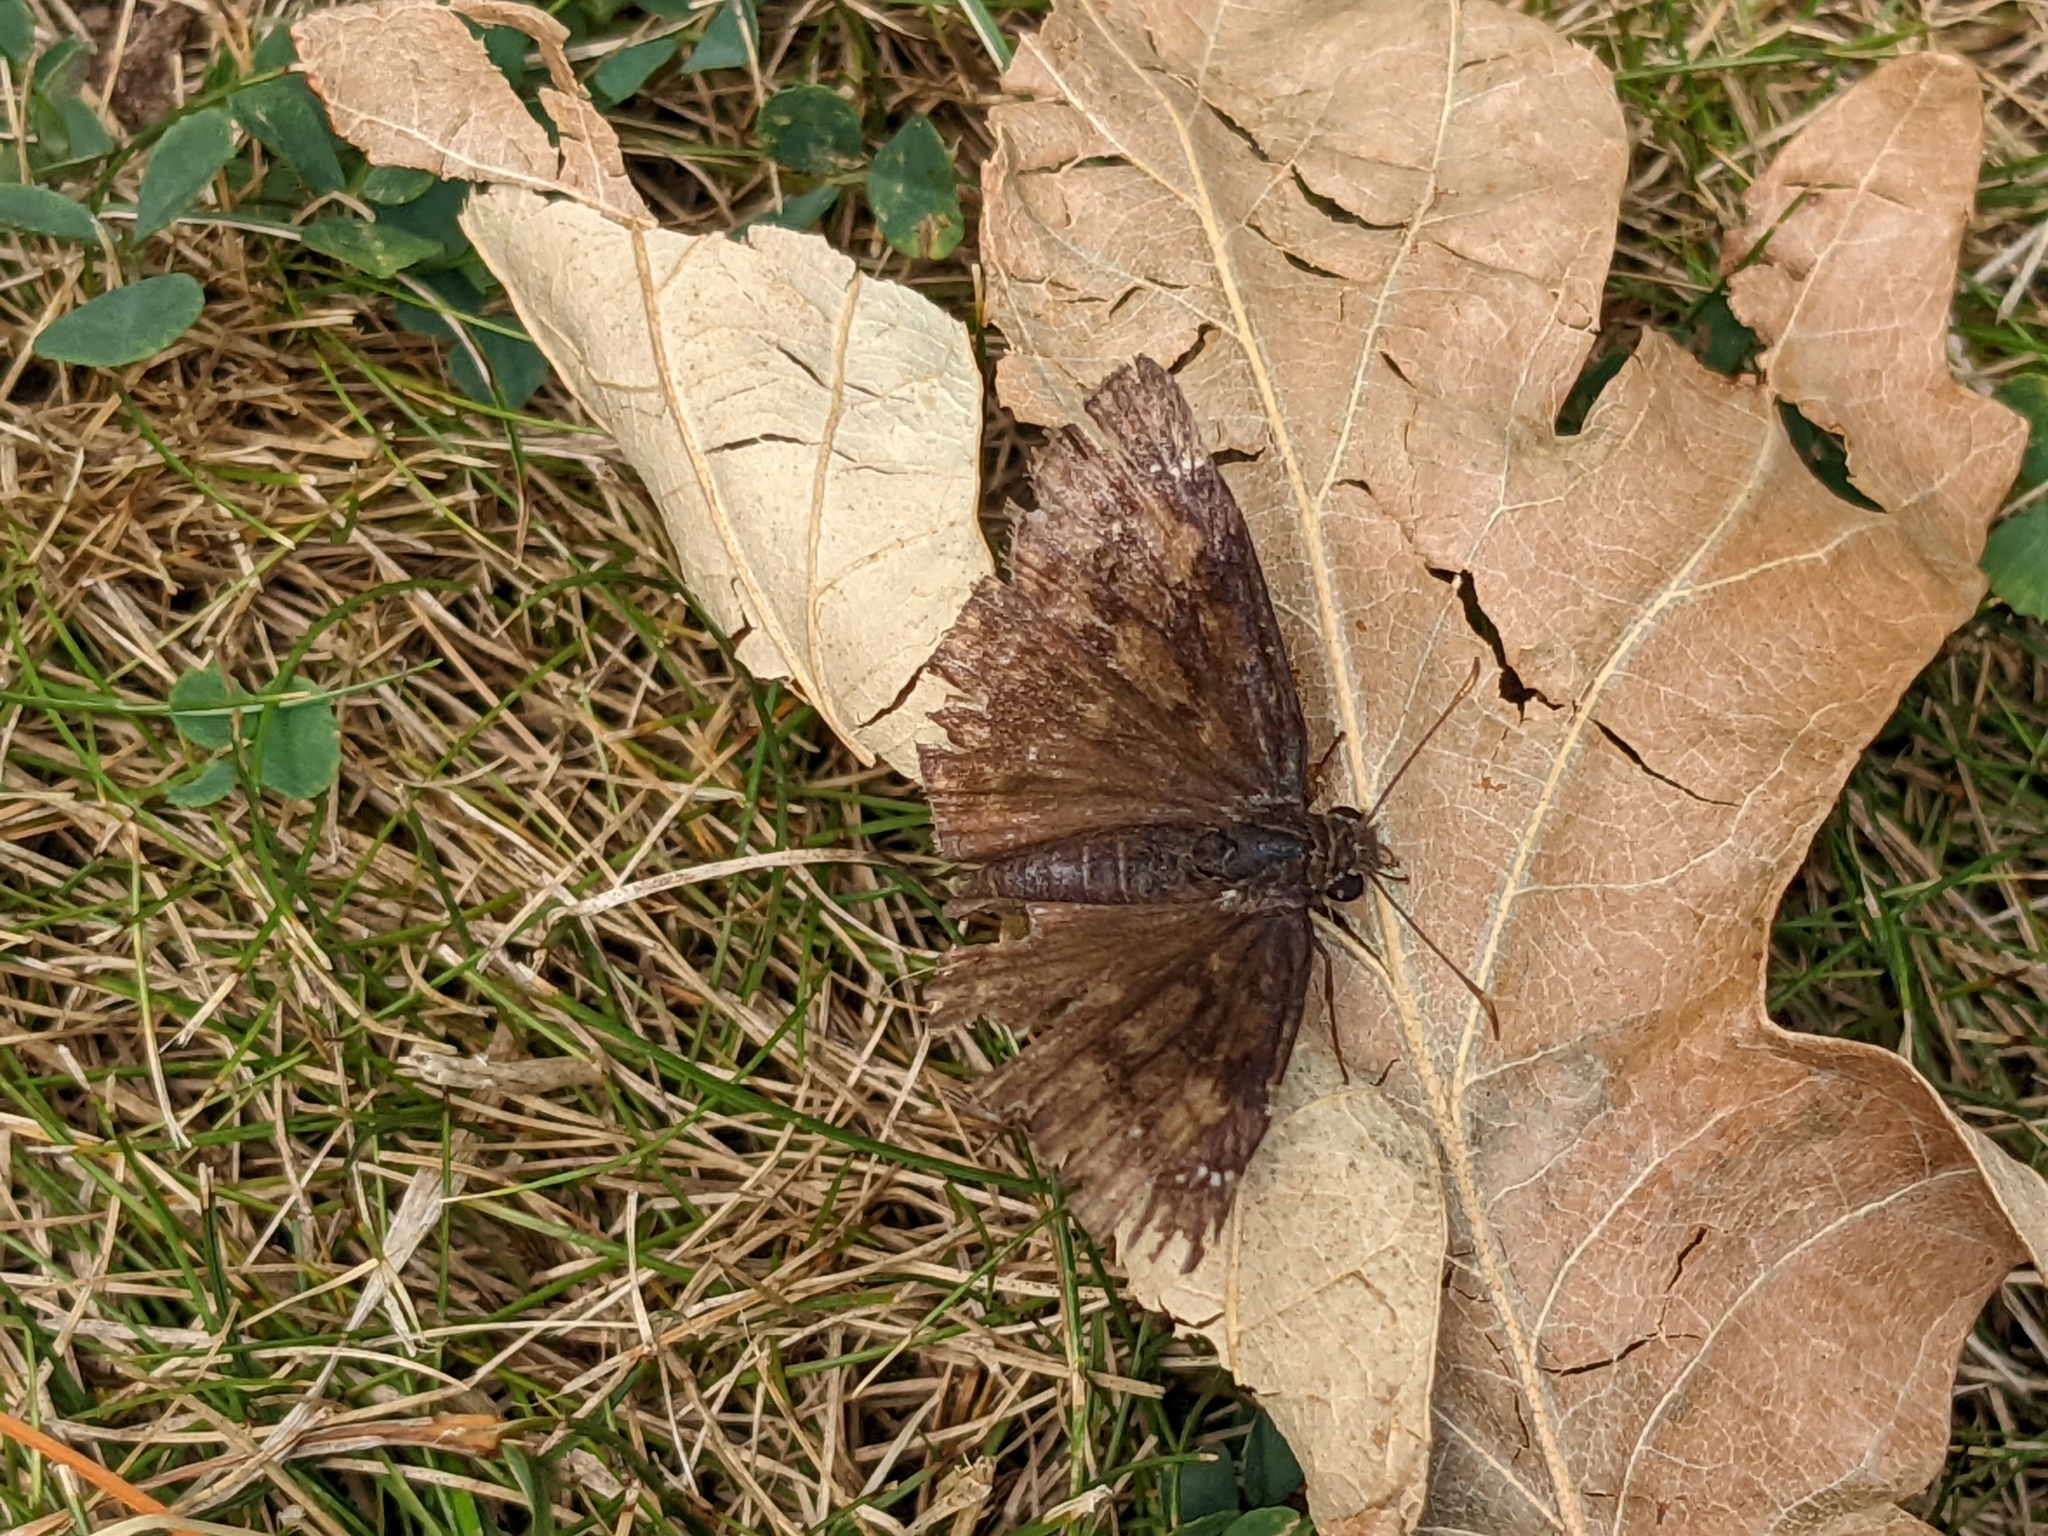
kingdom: Animalia
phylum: Arthropoda
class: Insecta
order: Lepidoptera
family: Hesperiidae
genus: Erynnis
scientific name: Erynnis baptisiae
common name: Wild indigo duskywing
